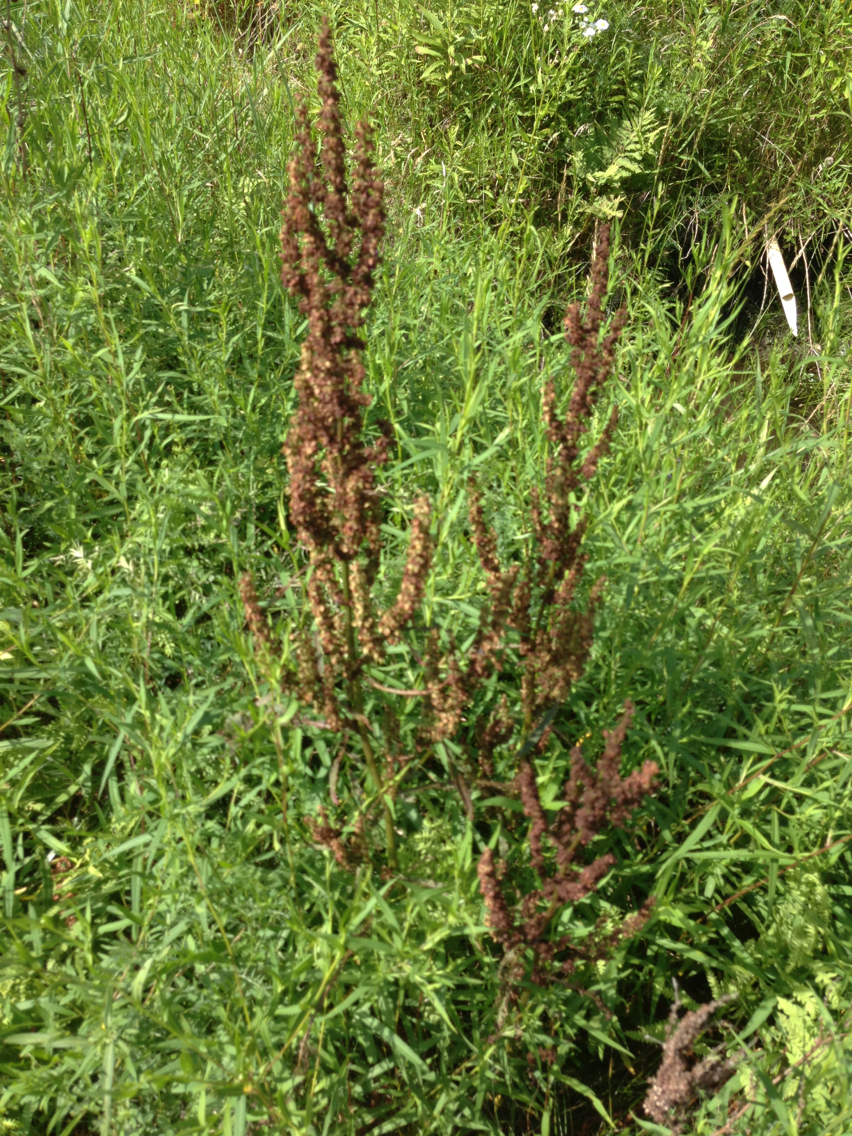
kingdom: Plantae
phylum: Tracheophyta
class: Magnoliopsida
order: Caryophyllales
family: Polygonaceae
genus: Rumex
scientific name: Rumex crispus
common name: Curled dock
